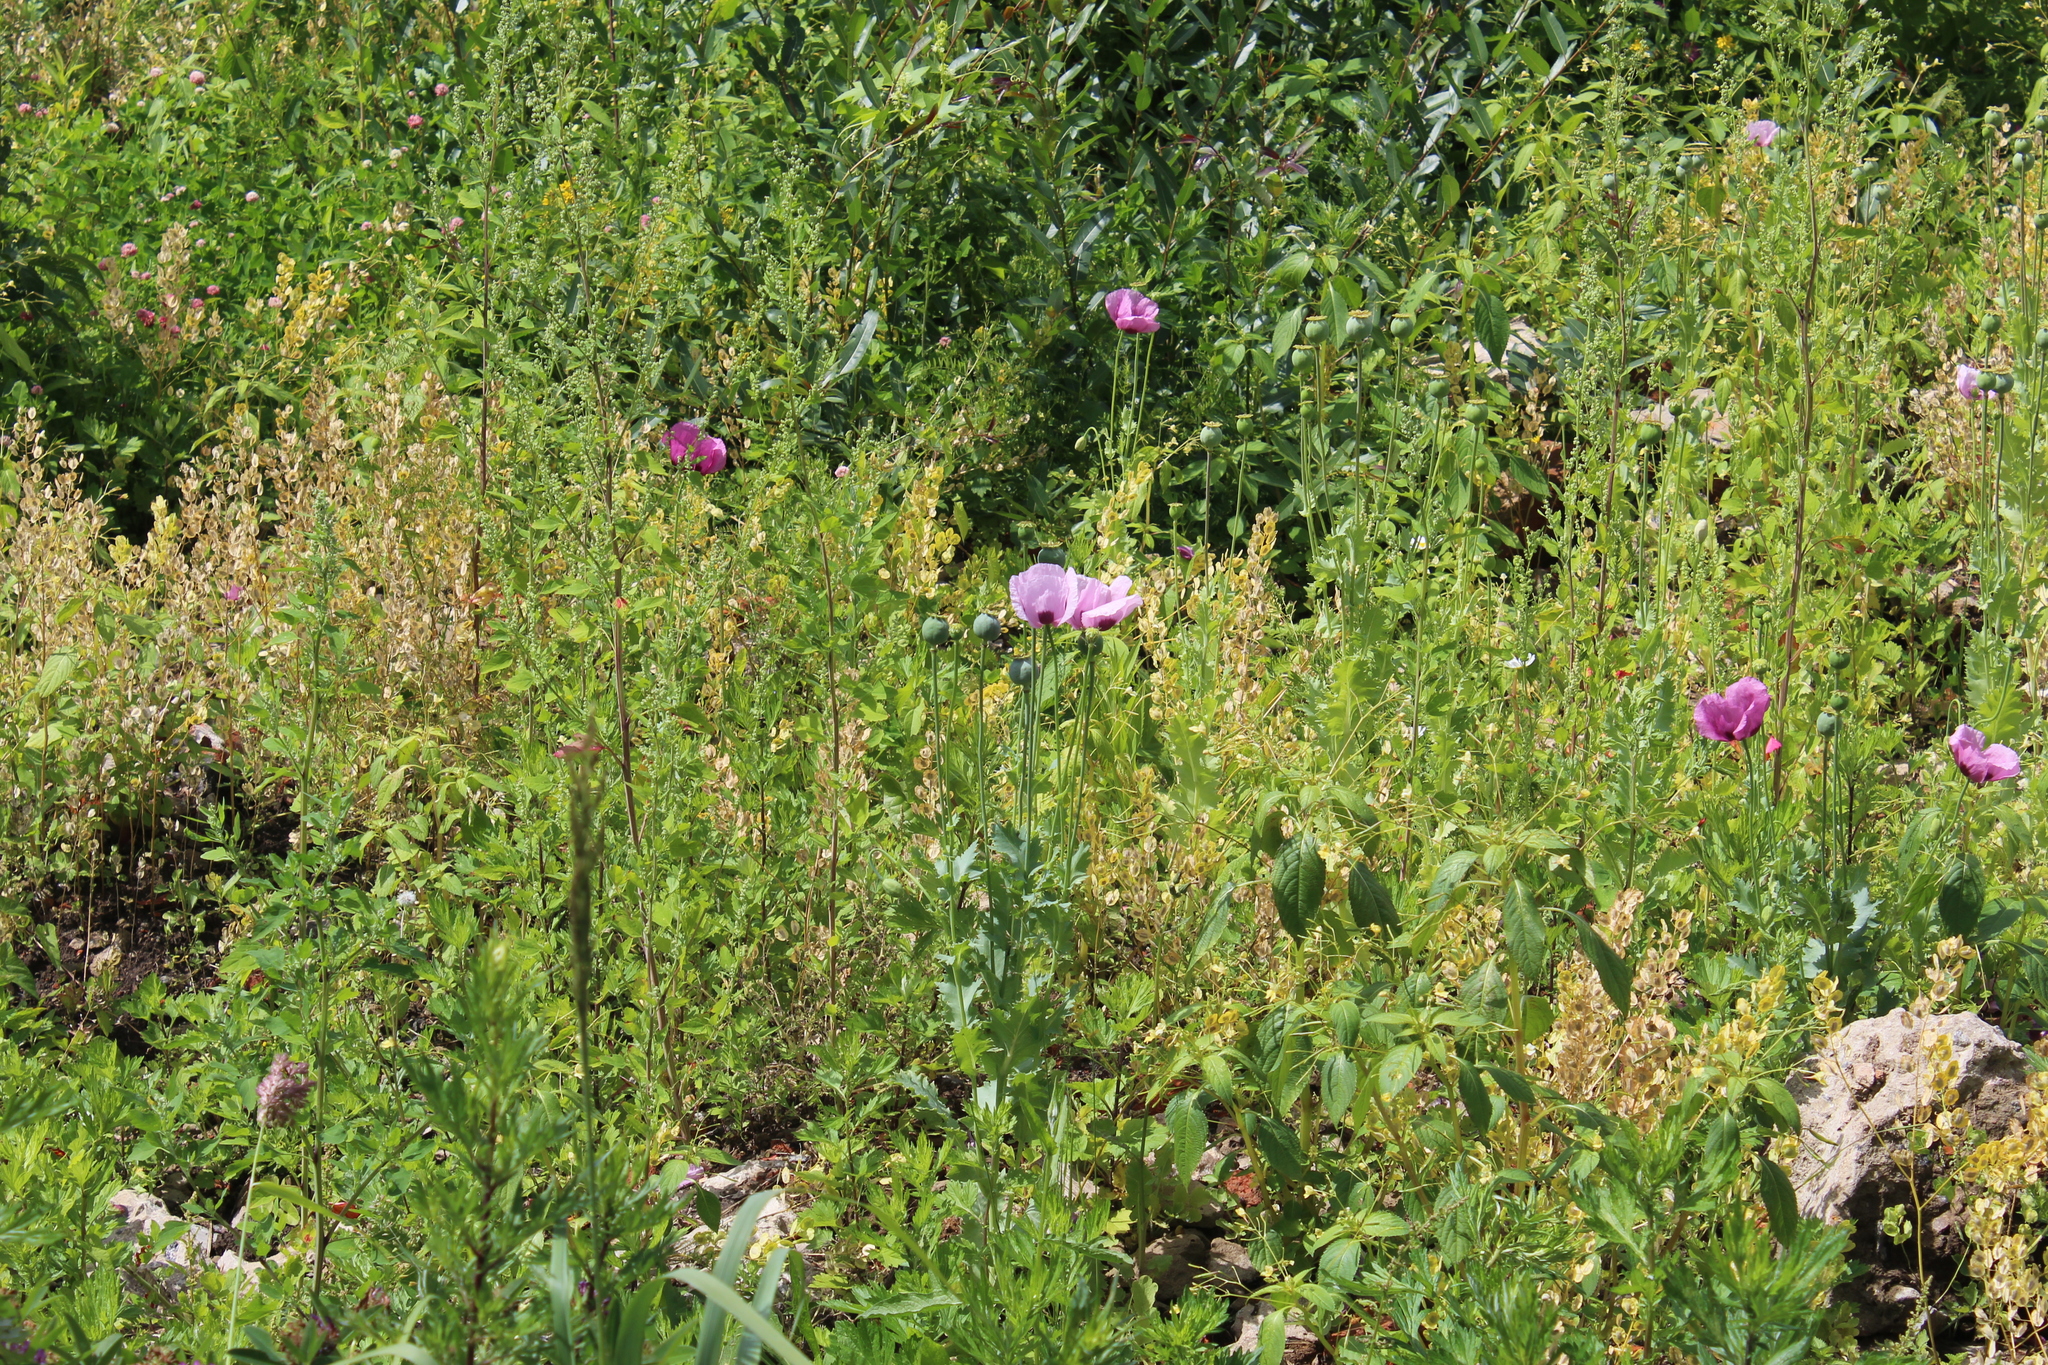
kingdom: Plantae
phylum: Tracheophyta
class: Magnoliopsida
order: Ranunculales
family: Papaveraceae
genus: Papaver
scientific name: Papaver somniferum
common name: Opium poppy
